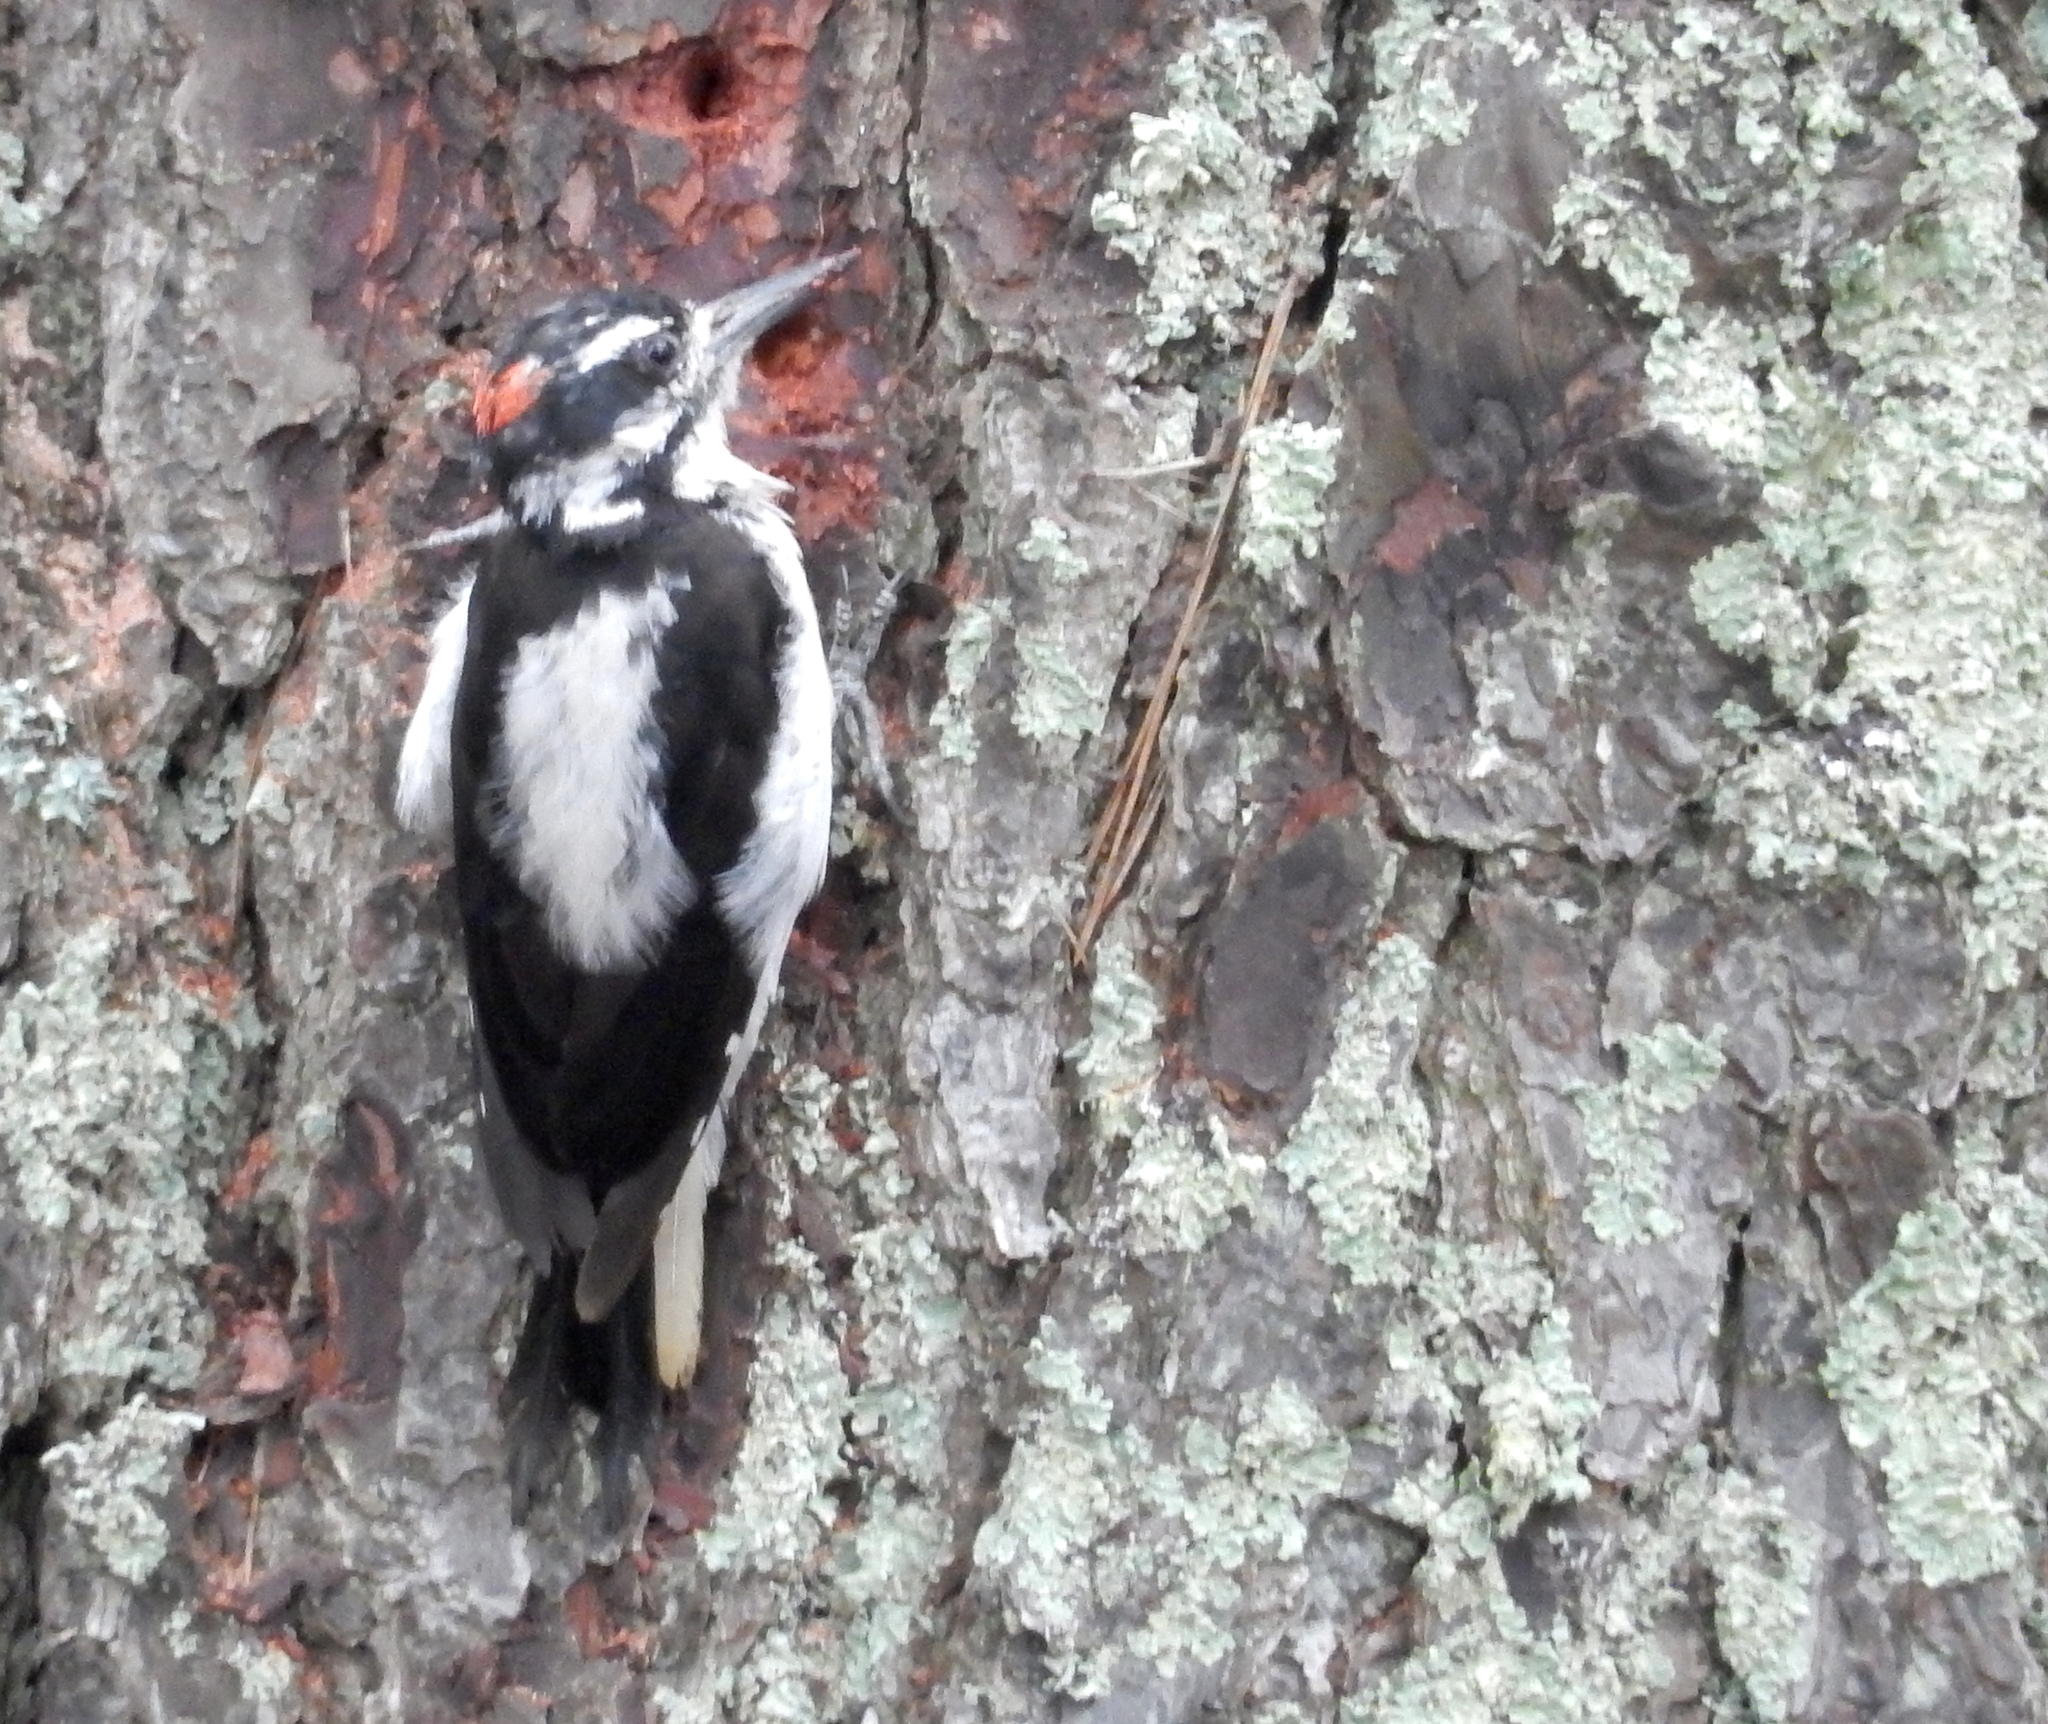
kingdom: Animalia
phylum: Chordata
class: Aves
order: Piciformes
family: Picidae
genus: Leuconotopicus
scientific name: Leuconotopicus villosus
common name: Hairy woodpecker
